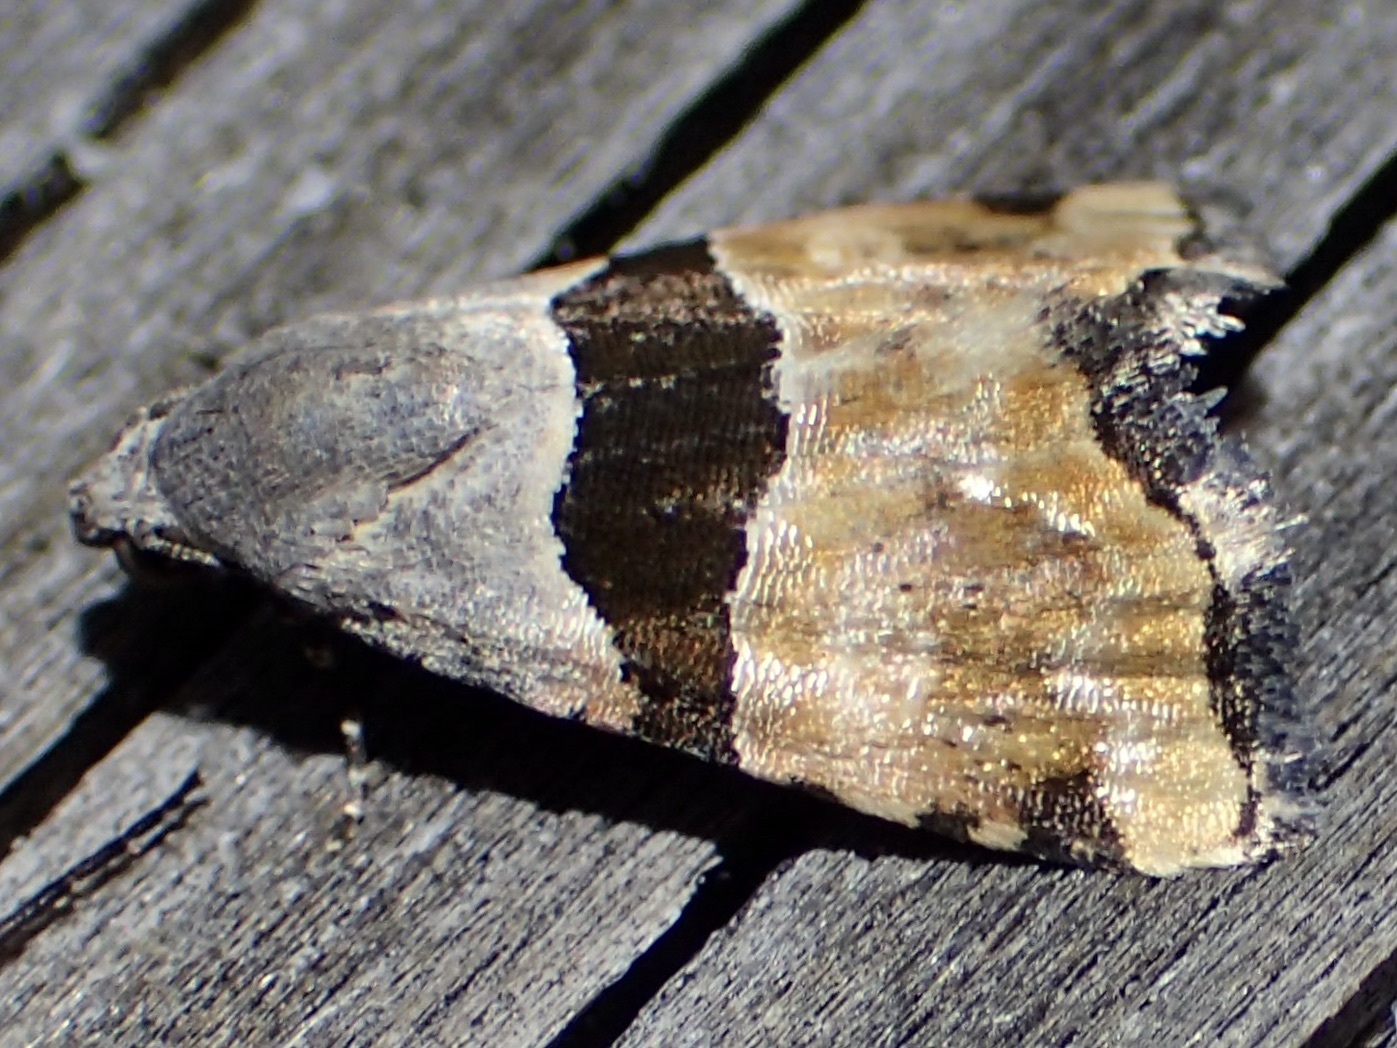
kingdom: Animalia
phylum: Arthropoda
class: Insecta
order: Lepidoptera
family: Noctuidae
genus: Cobubatha
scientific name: Cobubatha lixiva
